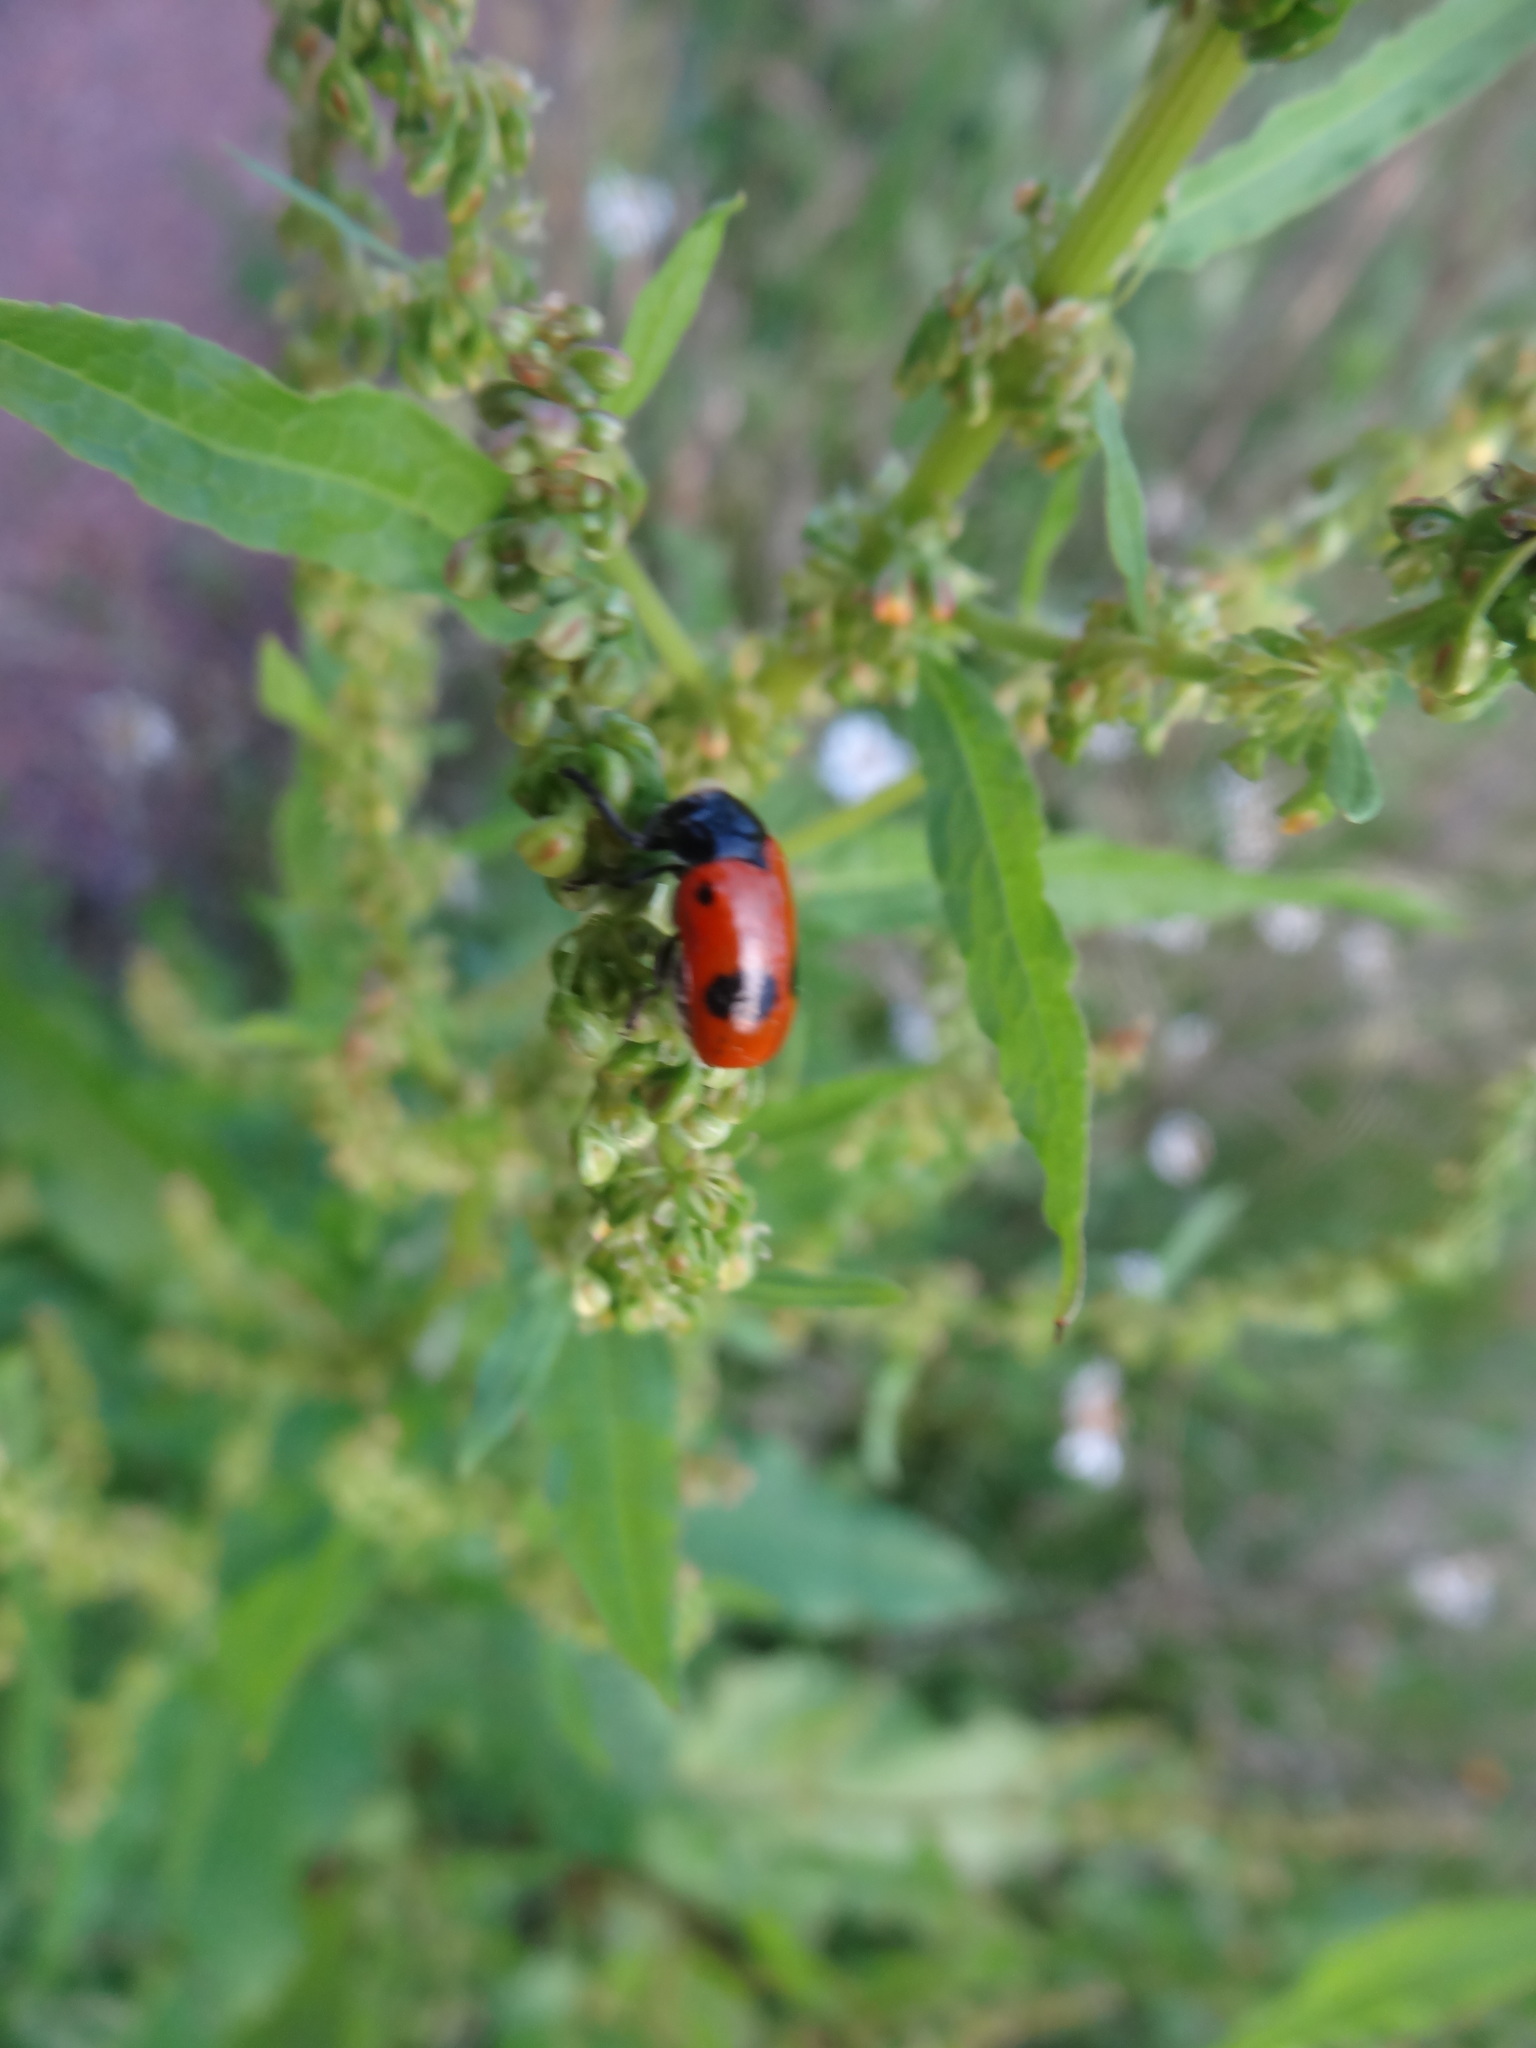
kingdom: Animalia
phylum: Arthropoda
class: Insecta
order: Coleoptera
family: Chrysomelidae
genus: Clytra
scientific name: Clytra laeviuscula
